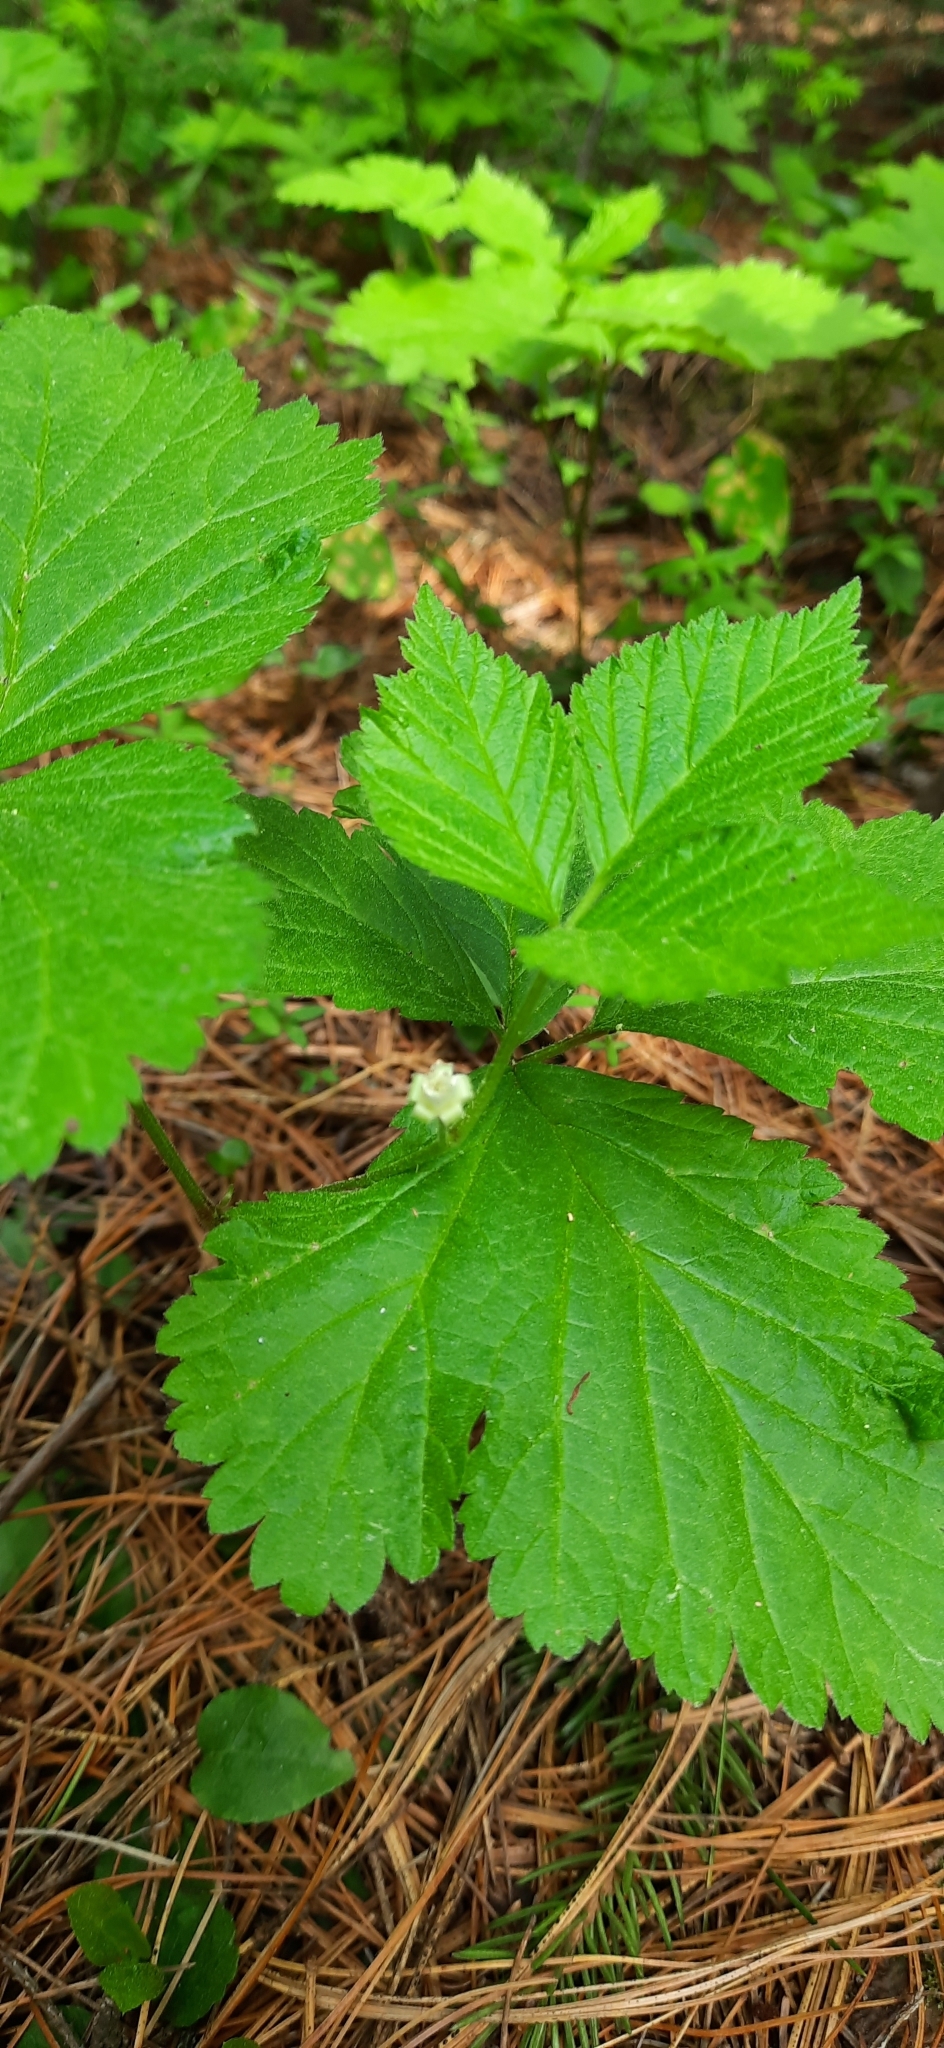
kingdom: Plantae
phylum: Tracheophyta
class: Magnoliopsida
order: Rosales
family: Rosaceae
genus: Rubus
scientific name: Rubus saxatilis
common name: Stone bramble
